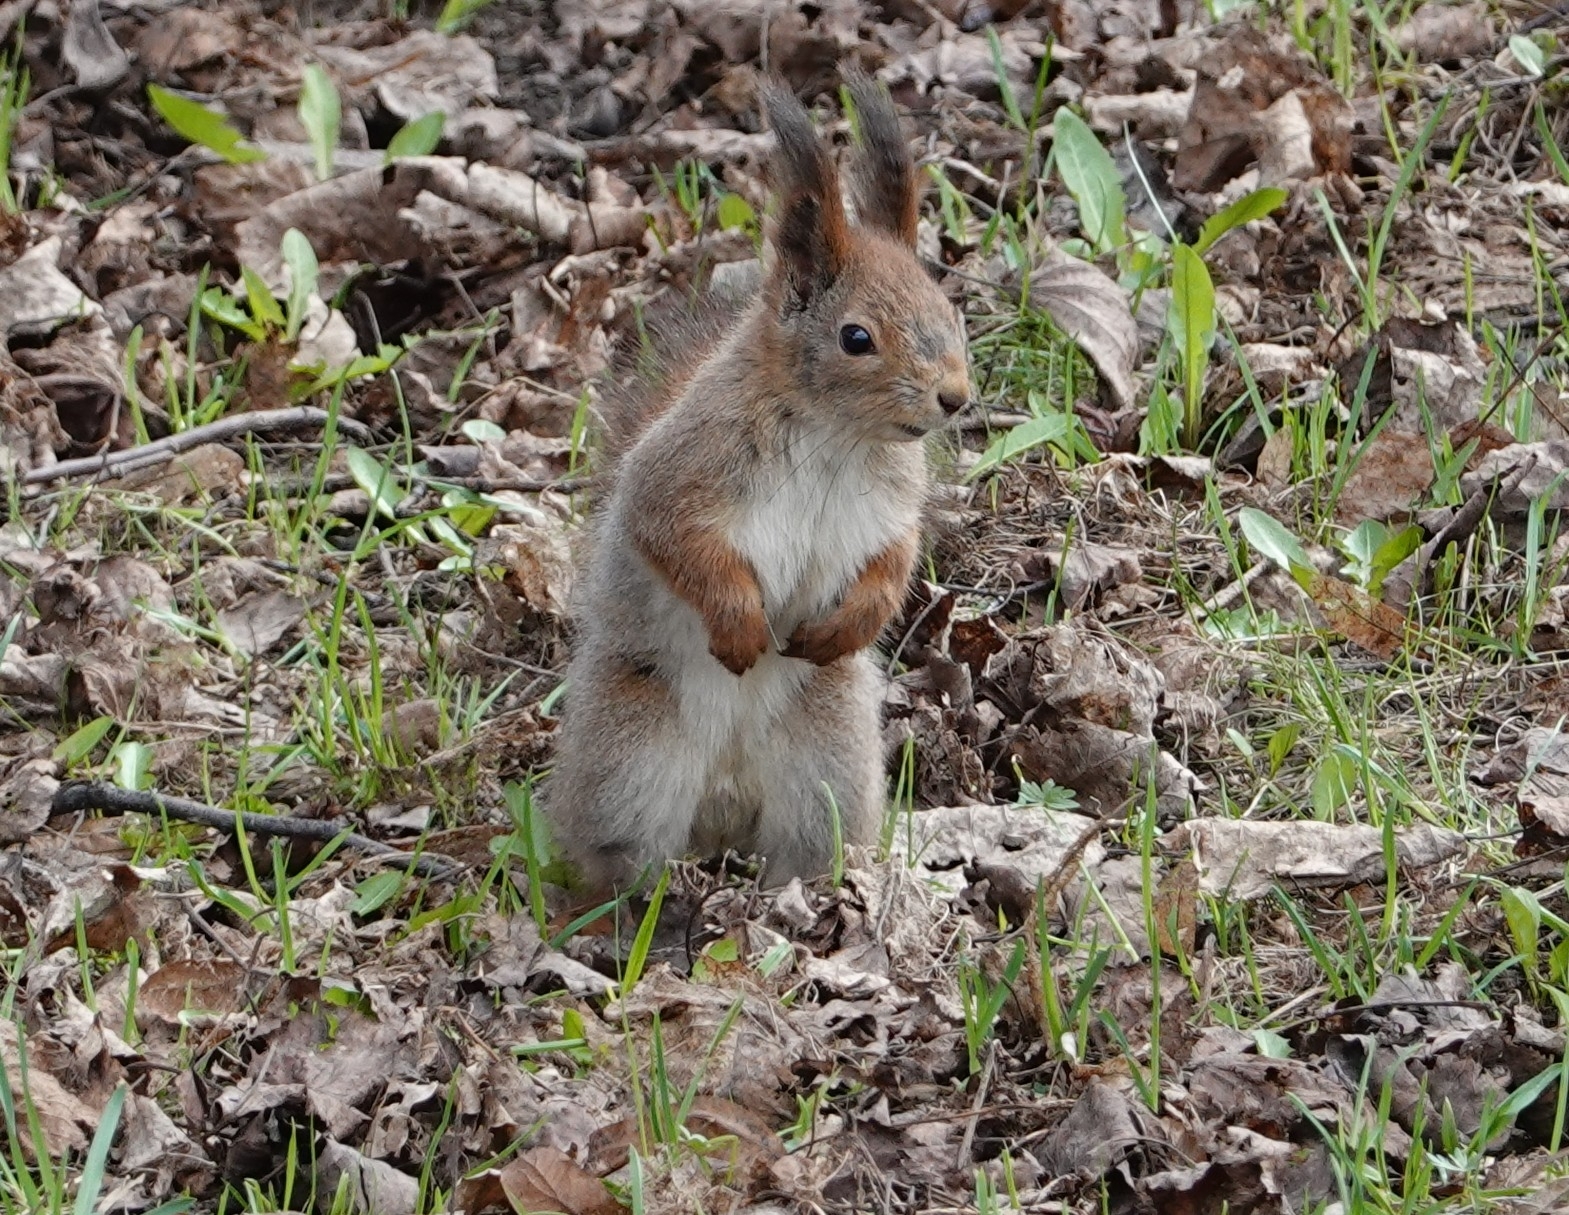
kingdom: Animalia
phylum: Chordata
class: Mammalia
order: Rodentia
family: Sciuridae
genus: Sciurus
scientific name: Sciurus vulgaris
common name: Eurasian red squirrel
